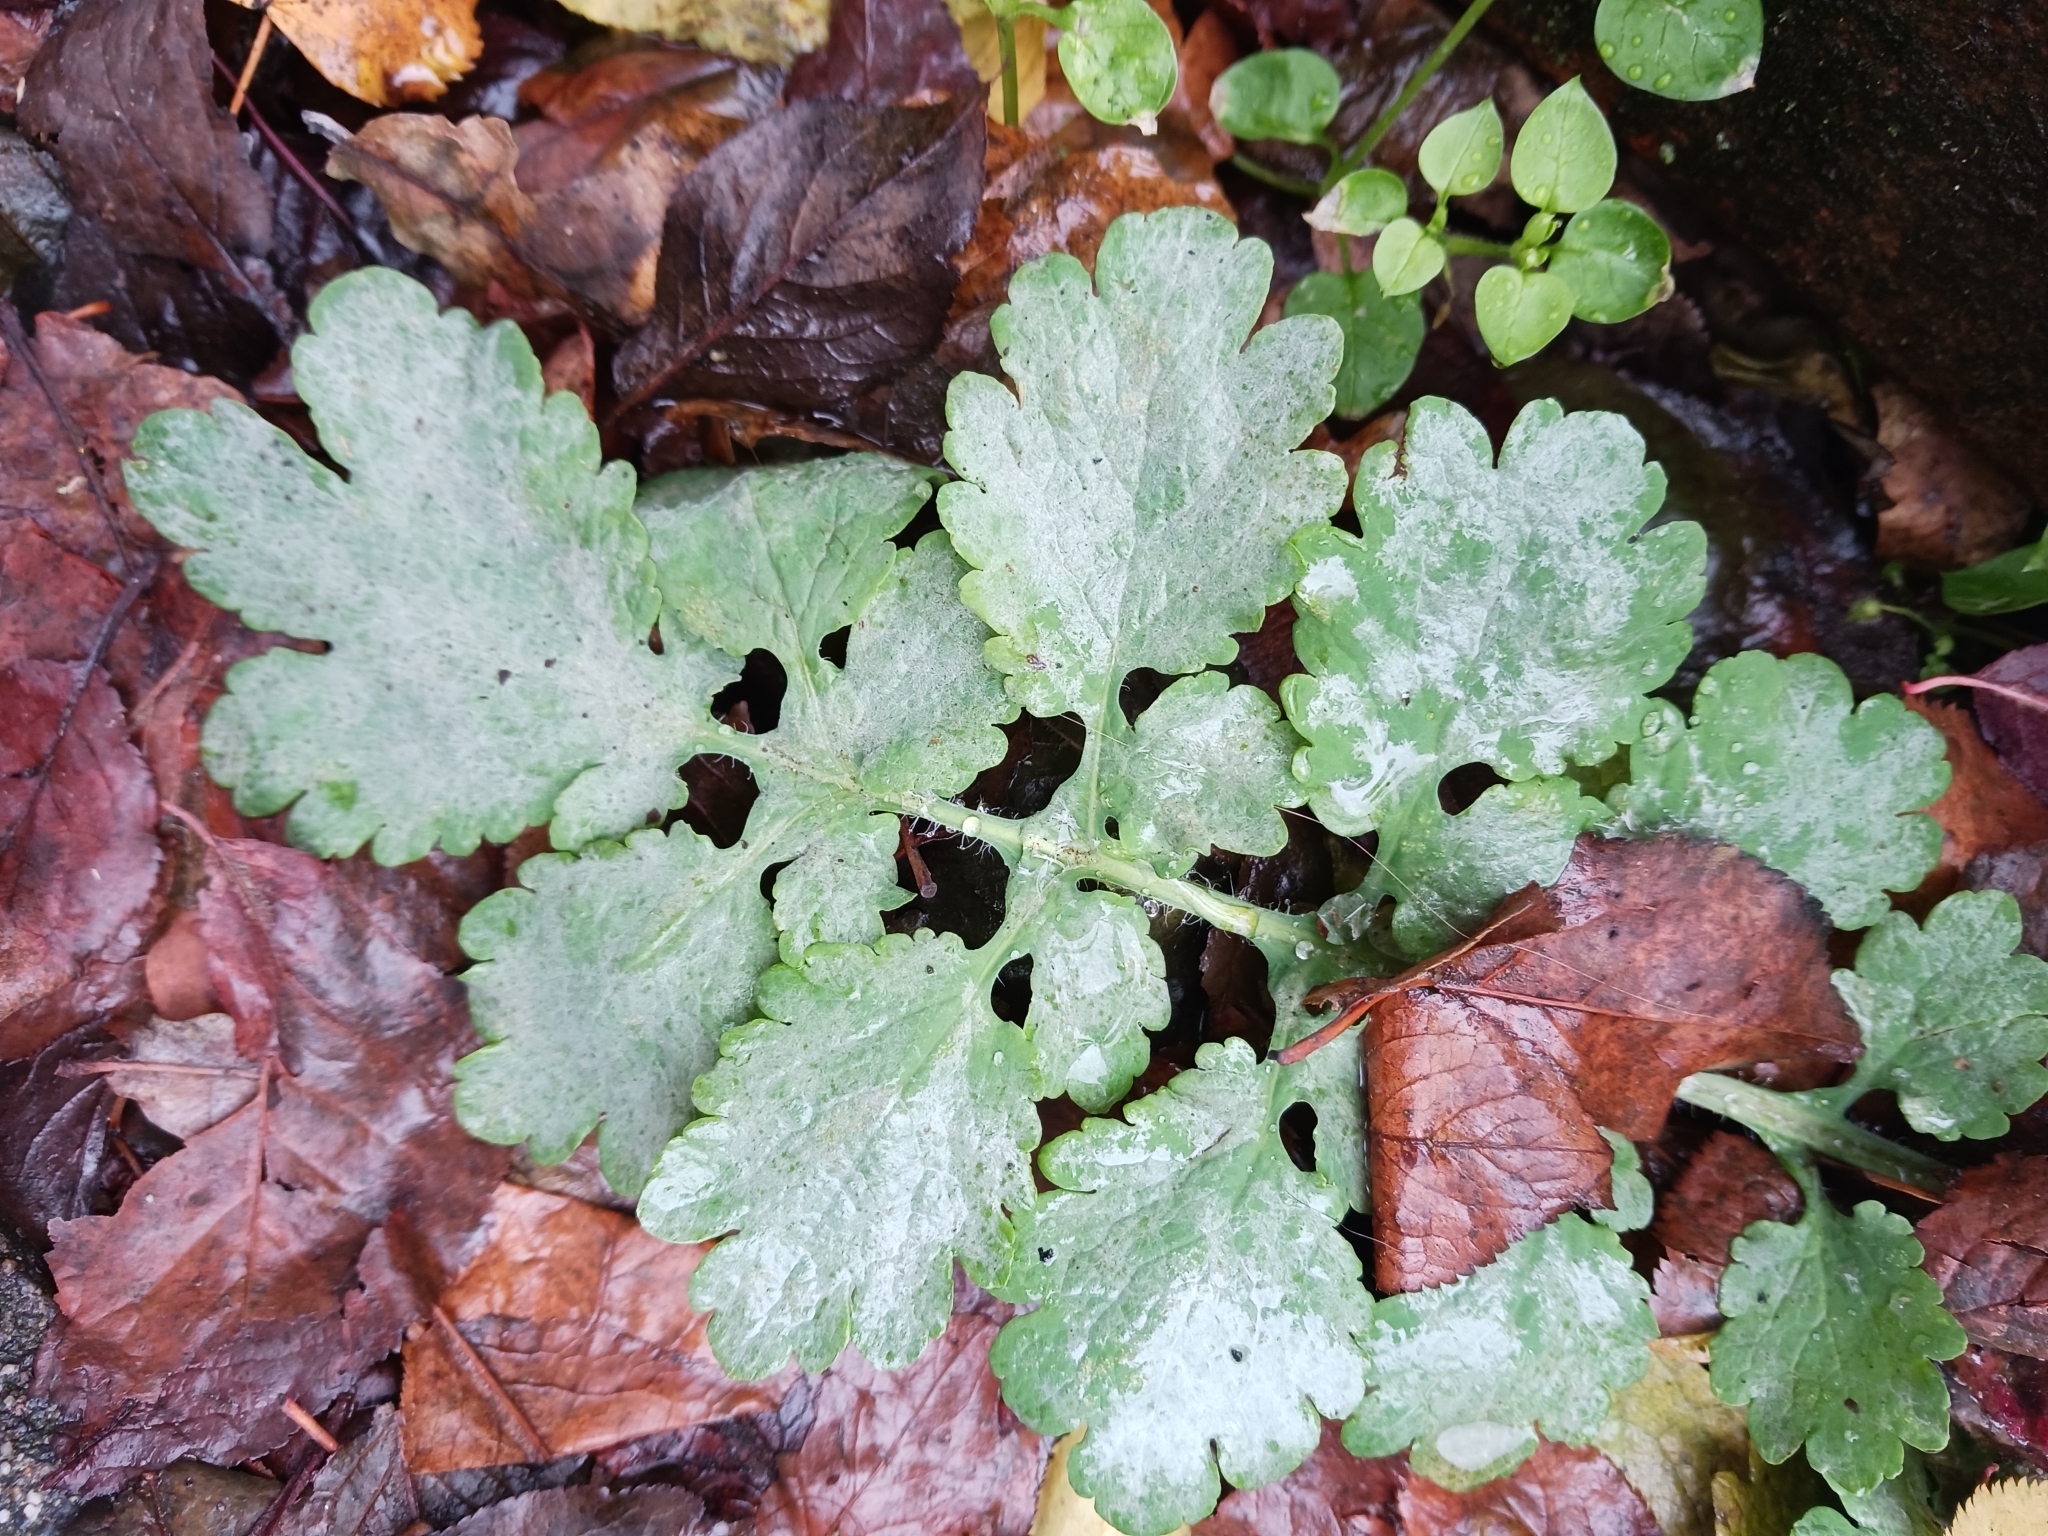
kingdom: Fungi
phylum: Ascomycota
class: Leotiomycetes
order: Helotiales
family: Erysiphaceae
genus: Erysiphe
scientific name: Erysiphe macleayae
